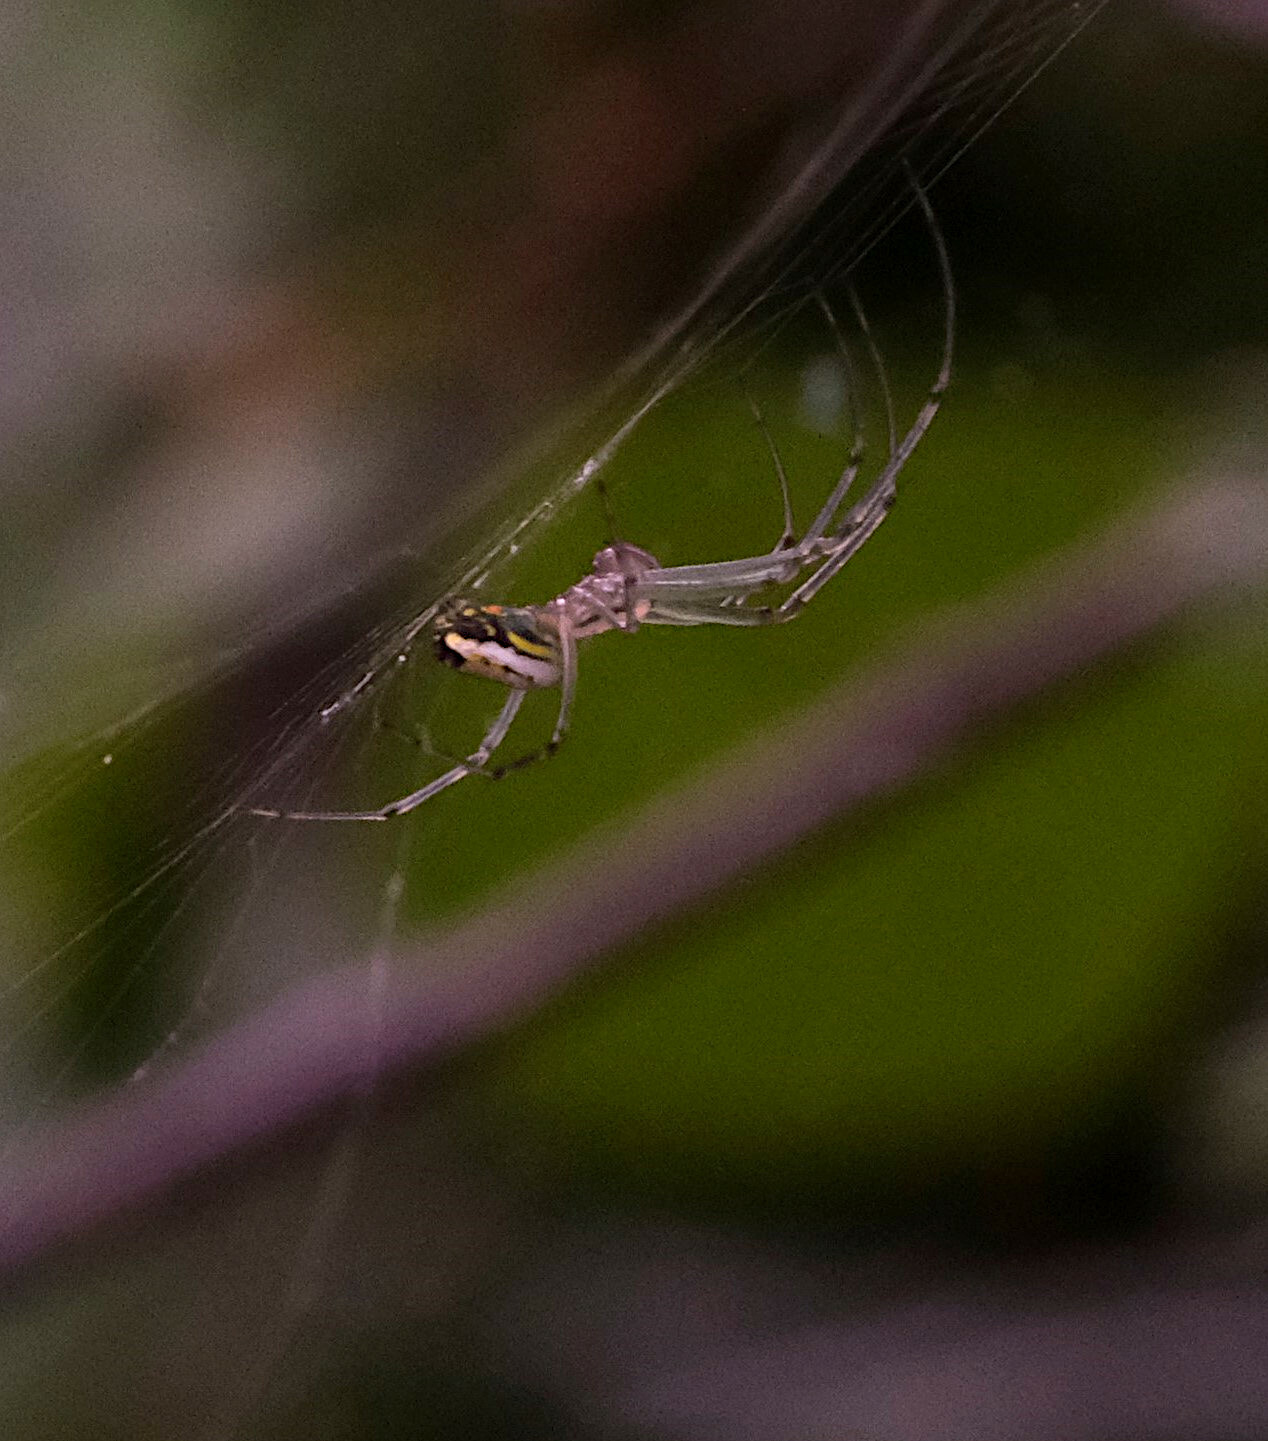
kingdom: Animalia
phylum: Arthropoda
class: Arachnida
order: Araneae
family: Tetragnathidae
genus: Leucauge
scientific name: Leucauge venusta
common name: Longjawed orb weavers
